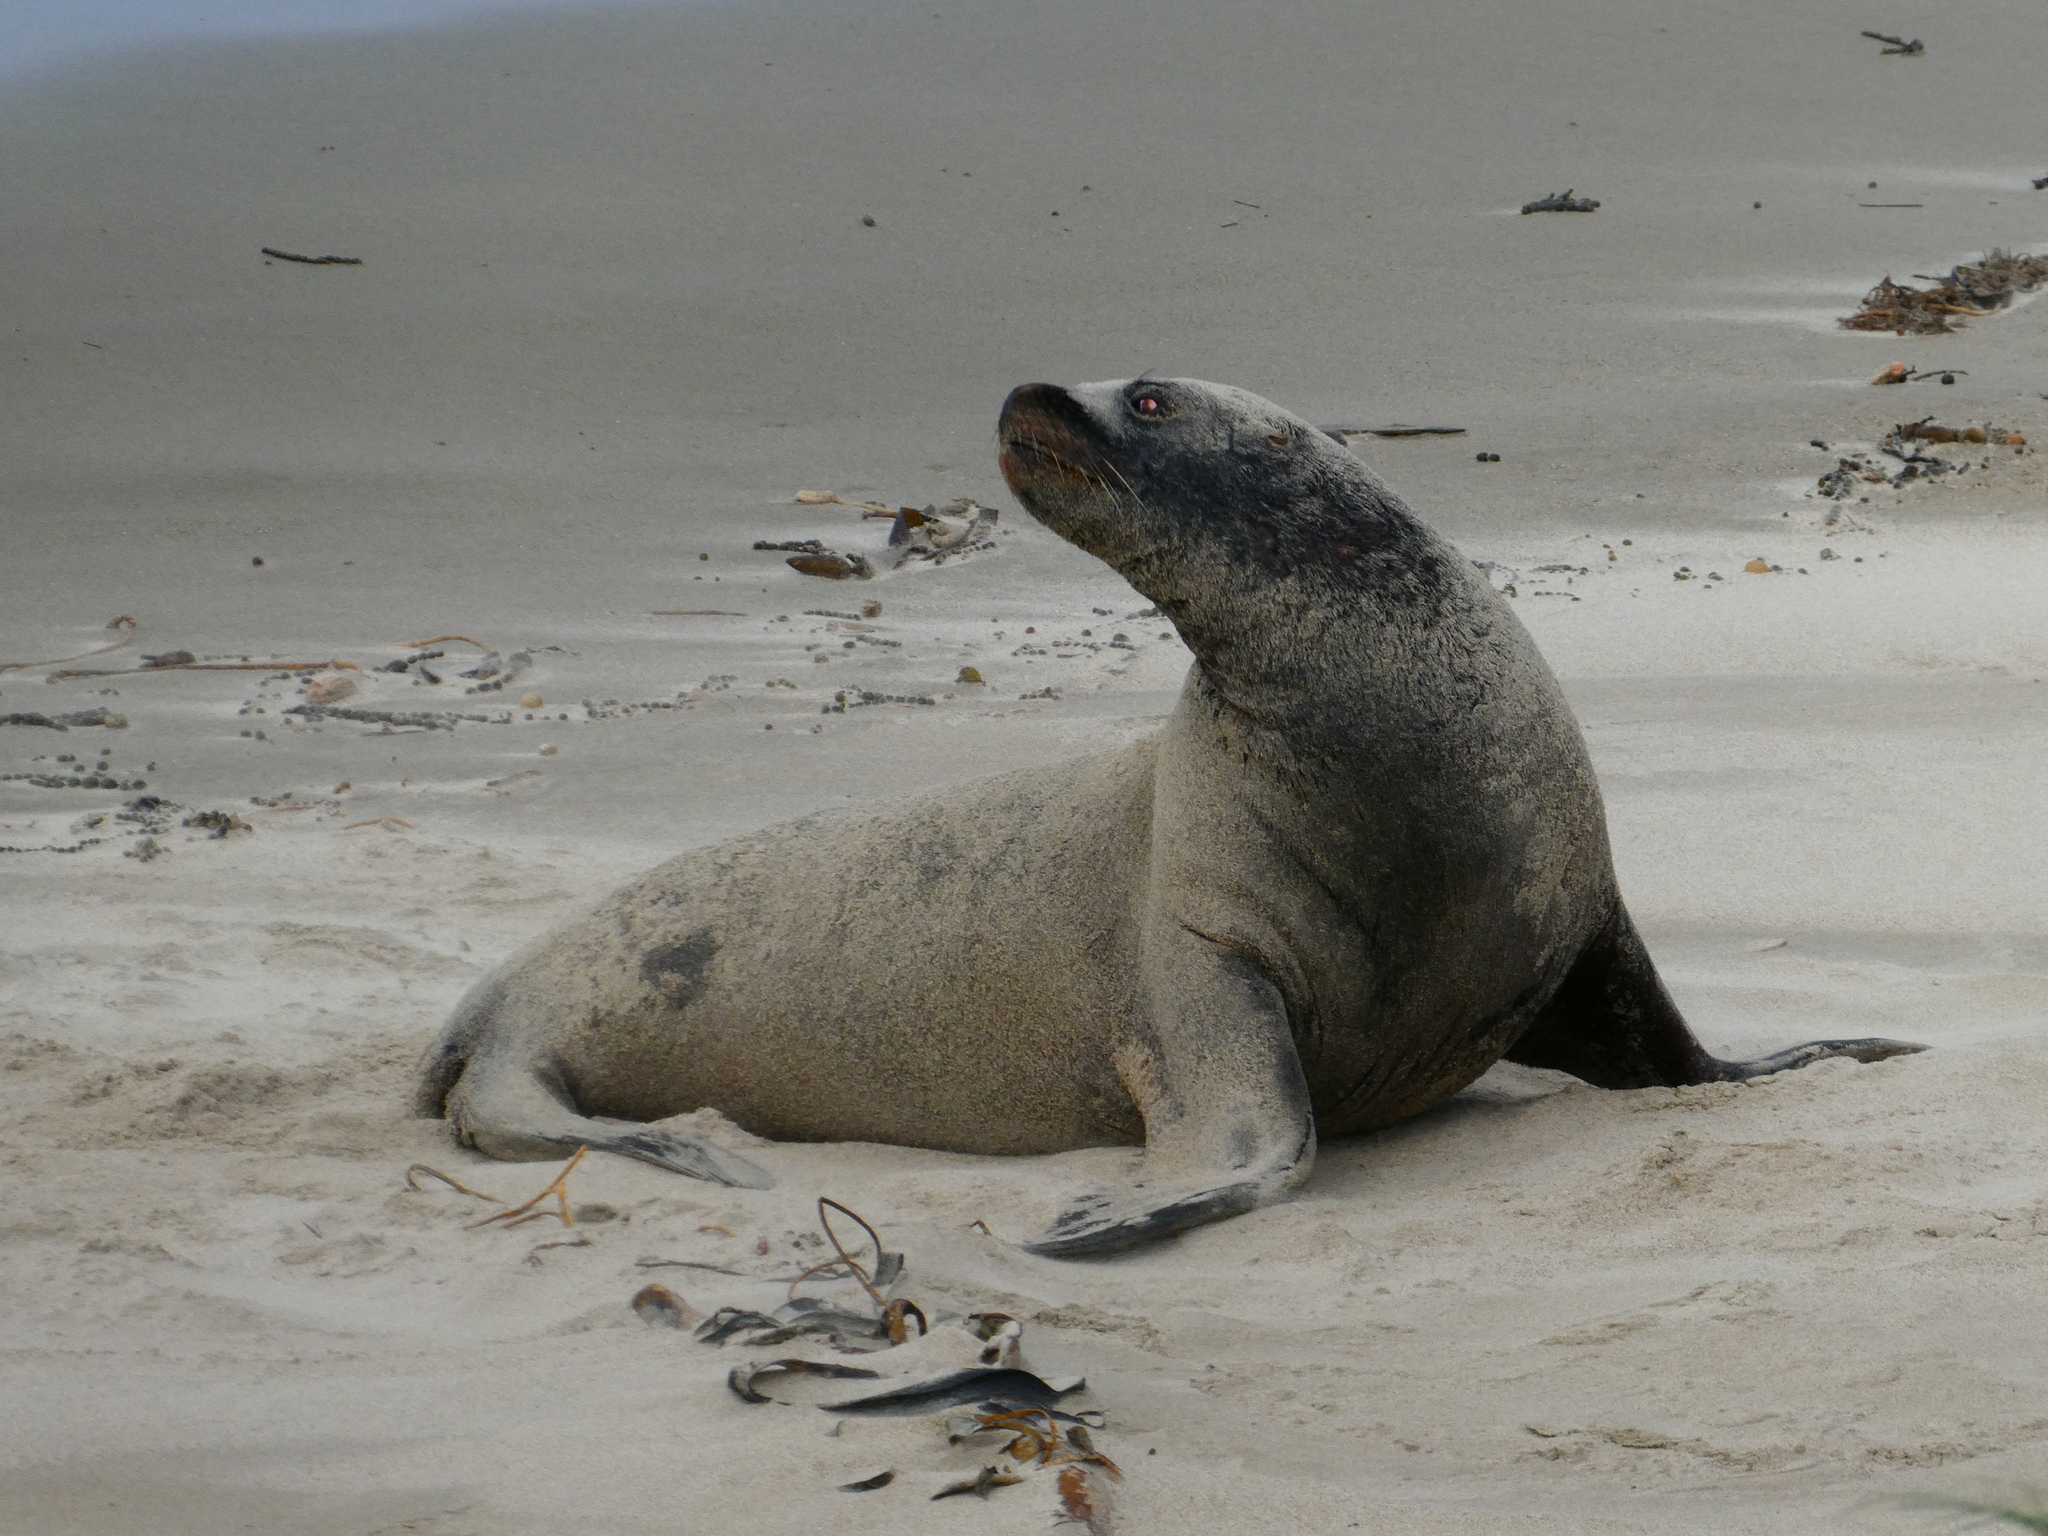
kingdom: Animalia
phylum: Chordata
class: Mammalia
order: Carnivora
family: Otariidae
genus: Phocarctos
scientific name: Phocarctos hookeri
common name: New zealand sea lion
